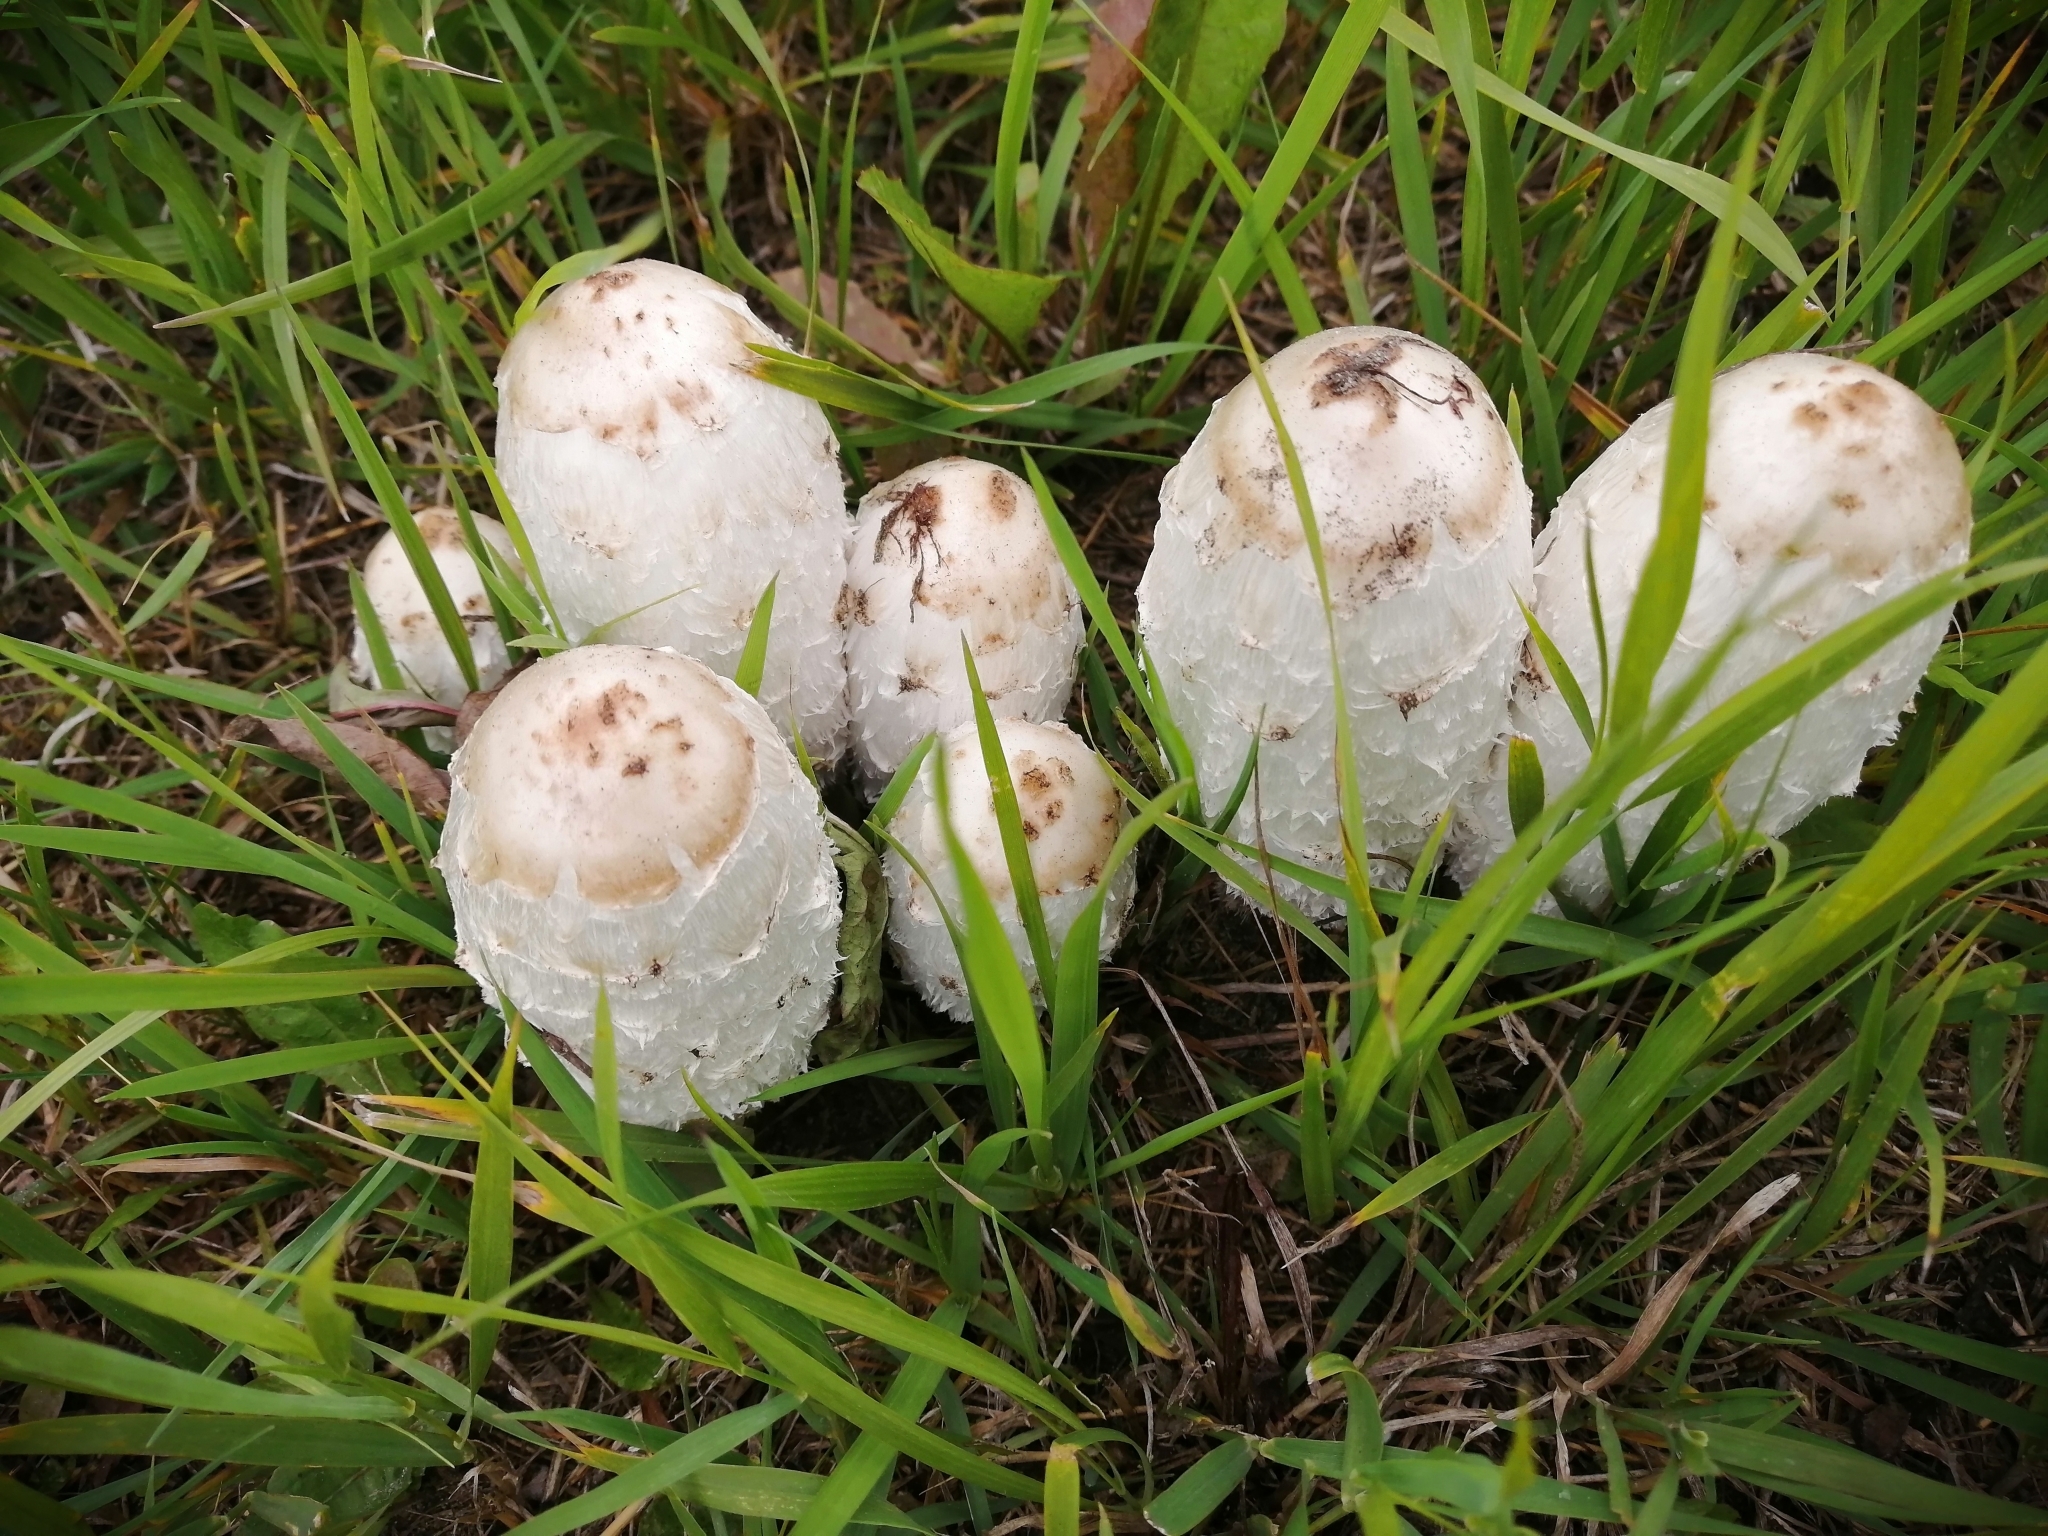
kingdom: Fungi
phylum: Basidiomycota
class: Agaricomycetes
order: Agaricales
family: Agaricaceae
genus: Coprinus
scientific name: Coprinus comatus
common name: Lawyer's wig
